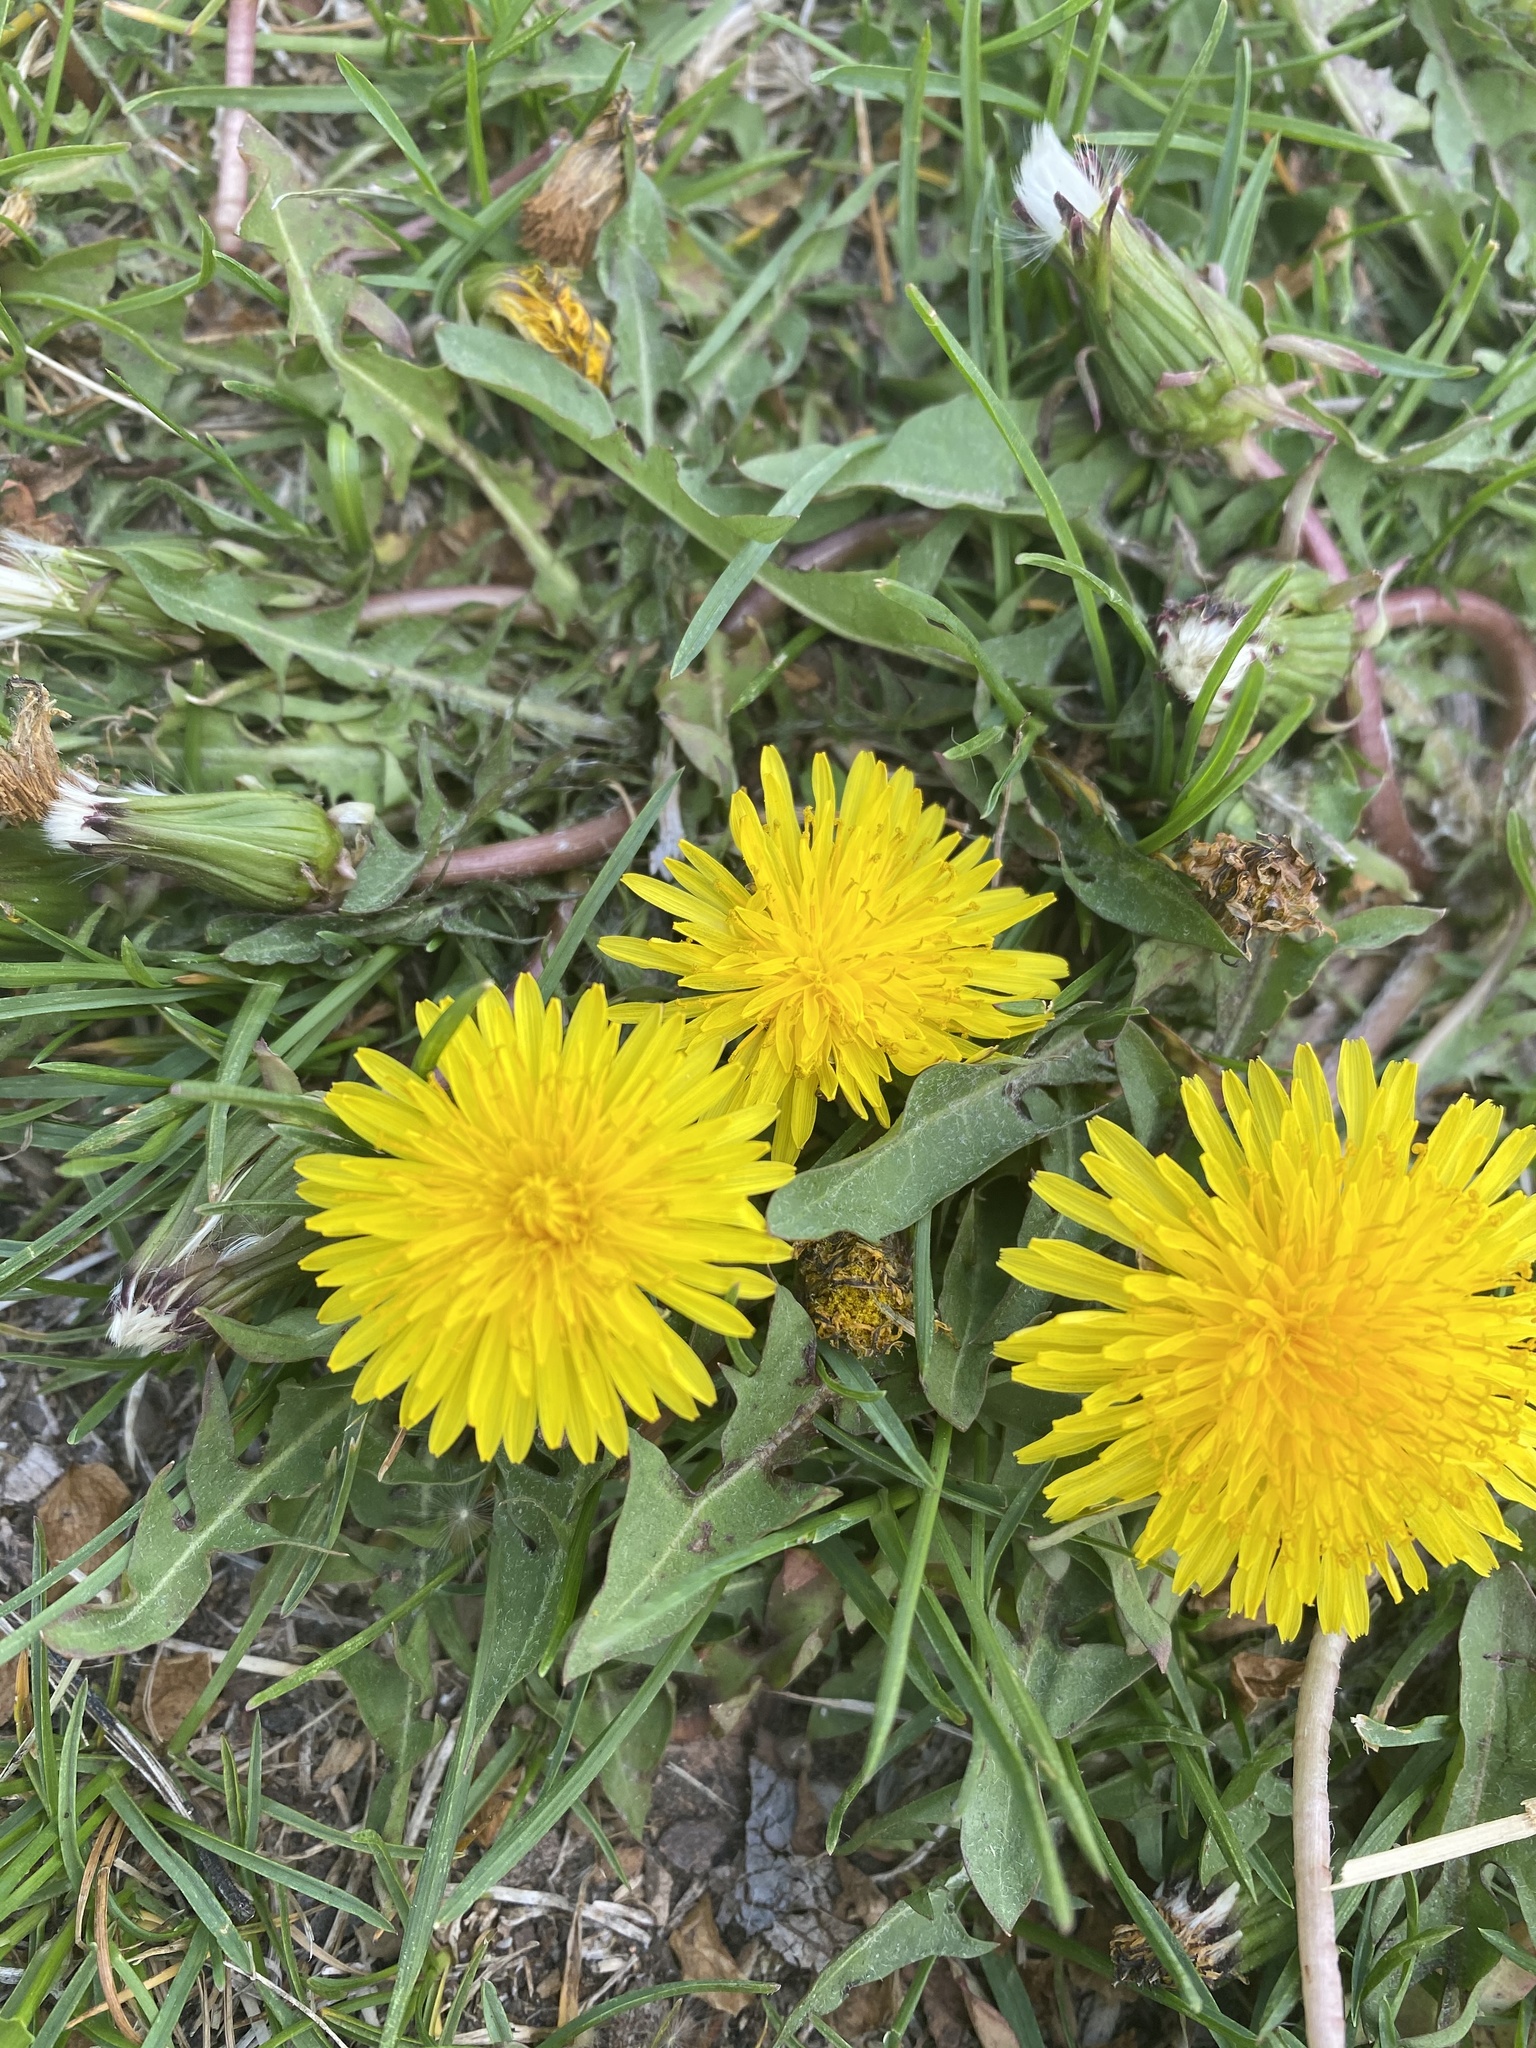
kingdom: Plantae
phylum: Tracheophyta
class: Magnoliopsida
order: Asterales
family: Asteraceae
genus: Taraxacum
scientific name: Taraxacum officinale
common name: Common dandelion
